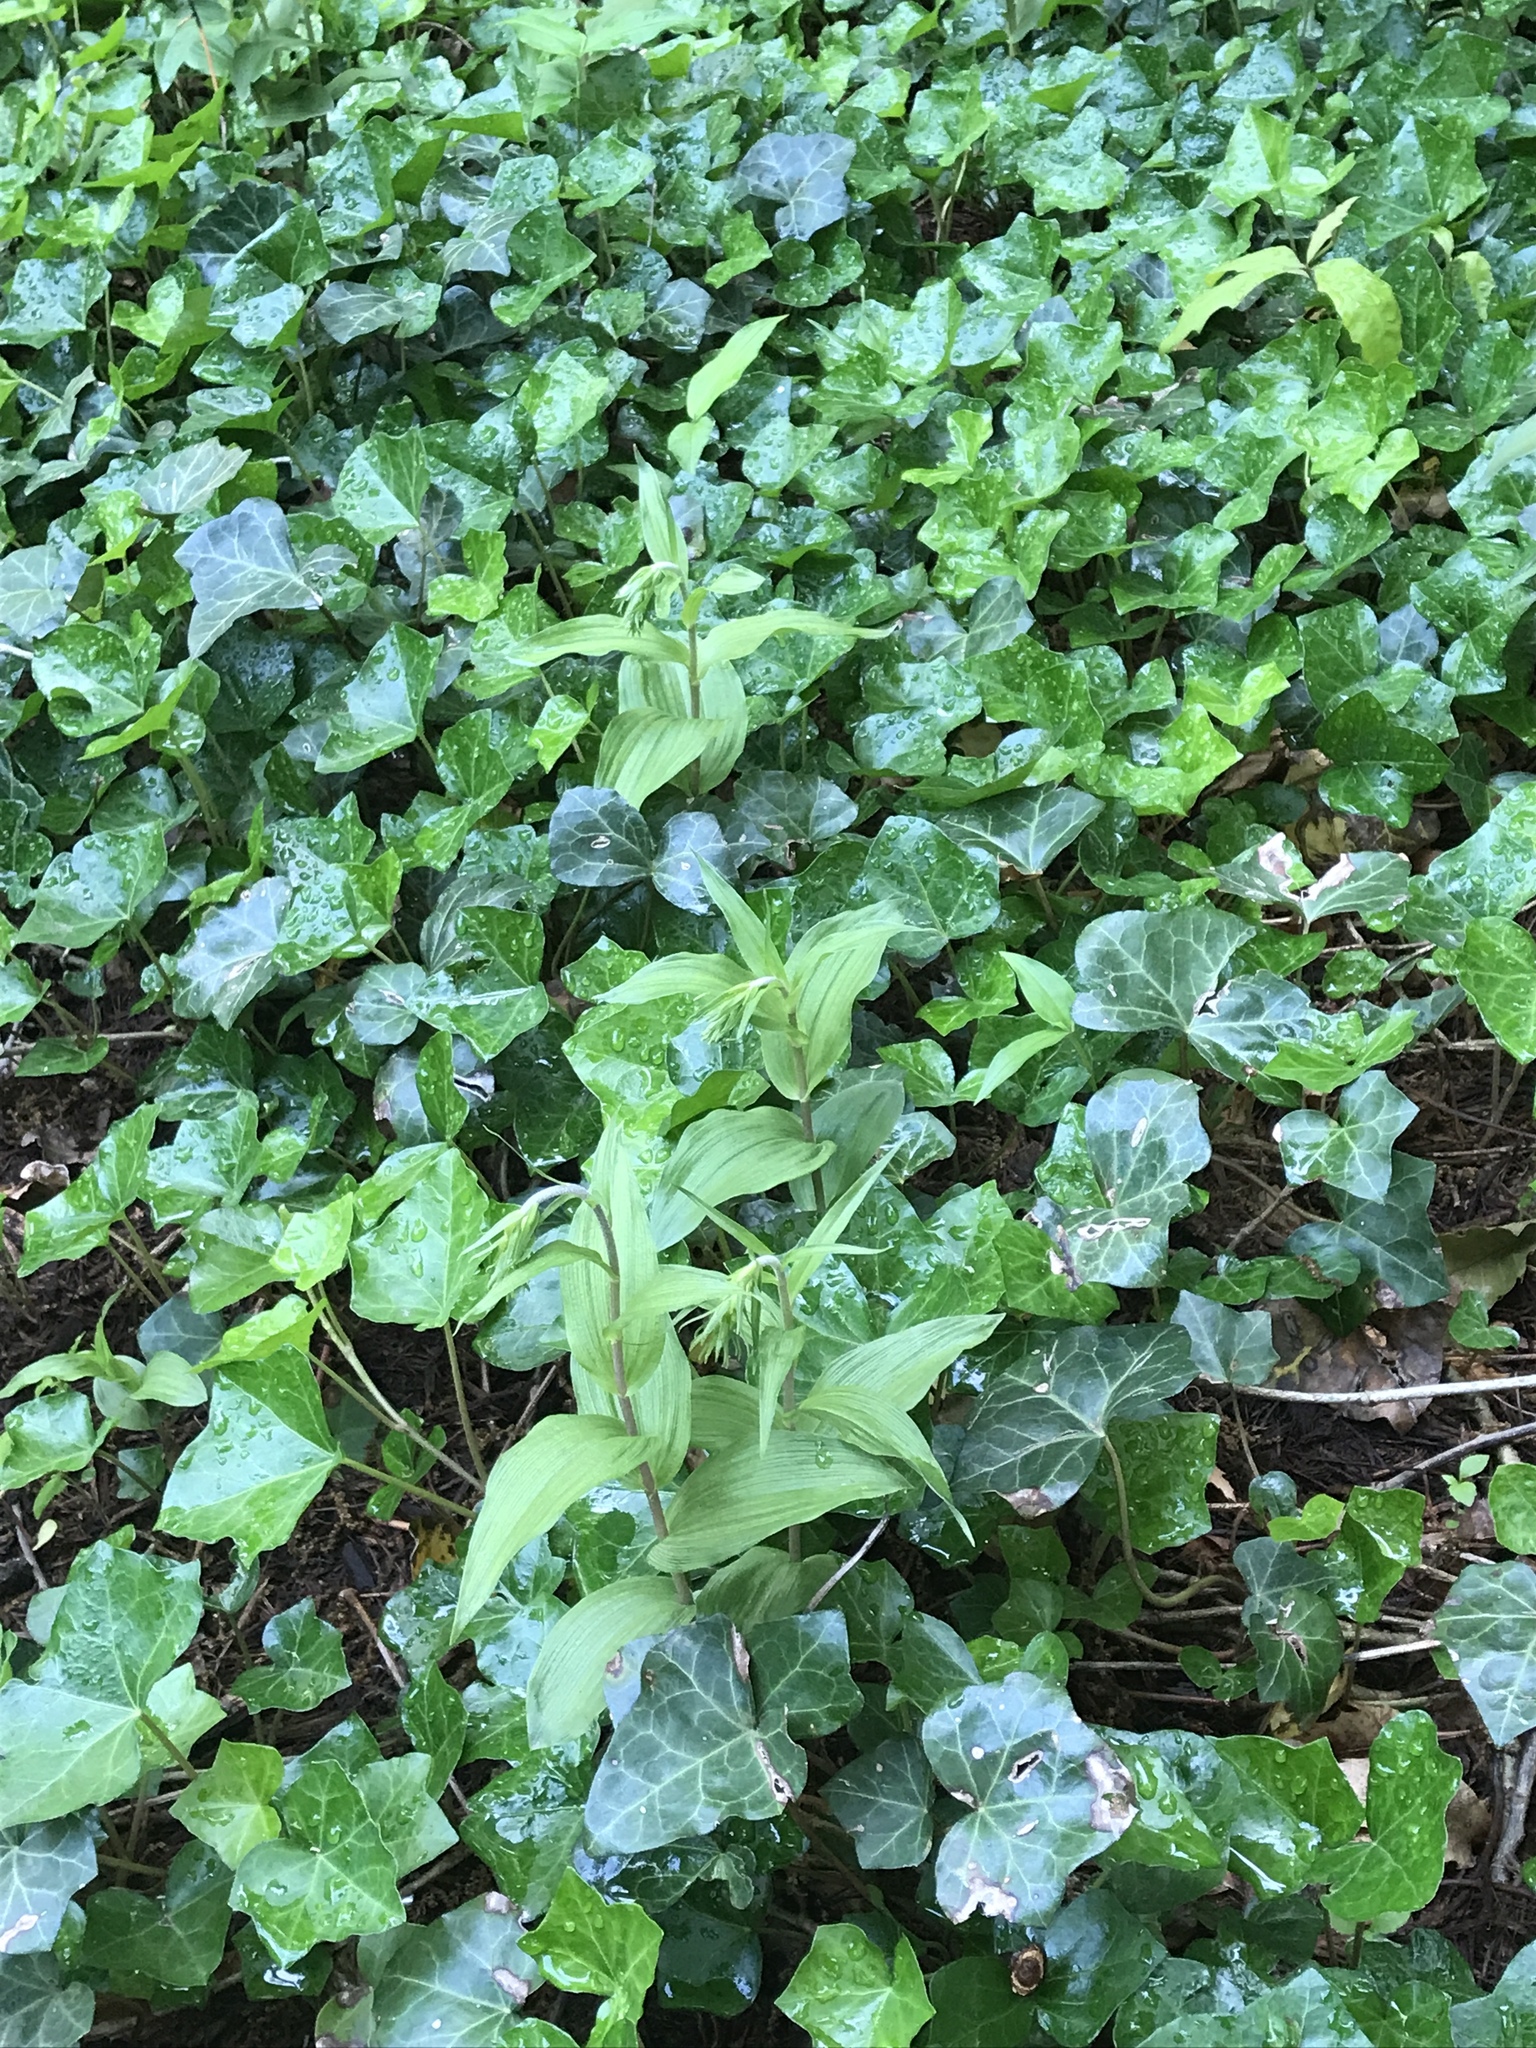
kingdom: Plantae
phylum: Tracheophyta
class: Liliopsida
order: Asparagales
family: Orchidaceae
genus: Epipactis
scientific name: Epipactis helleborine
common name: Broad-leaved helleborine
